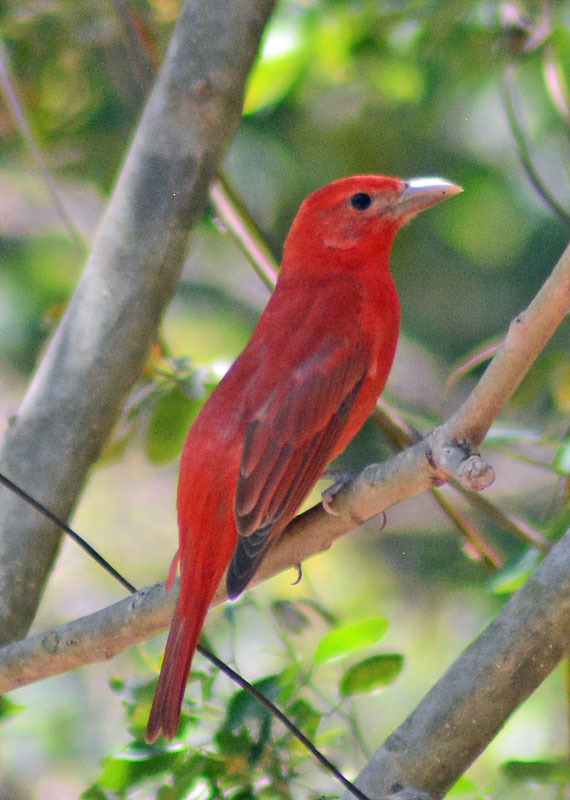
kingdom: Animalia
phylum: Chordata
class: Aves
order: Passeriformes
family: Cardinalidae
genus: Piranga
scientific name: Piranga rubra
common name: Summer tanager
